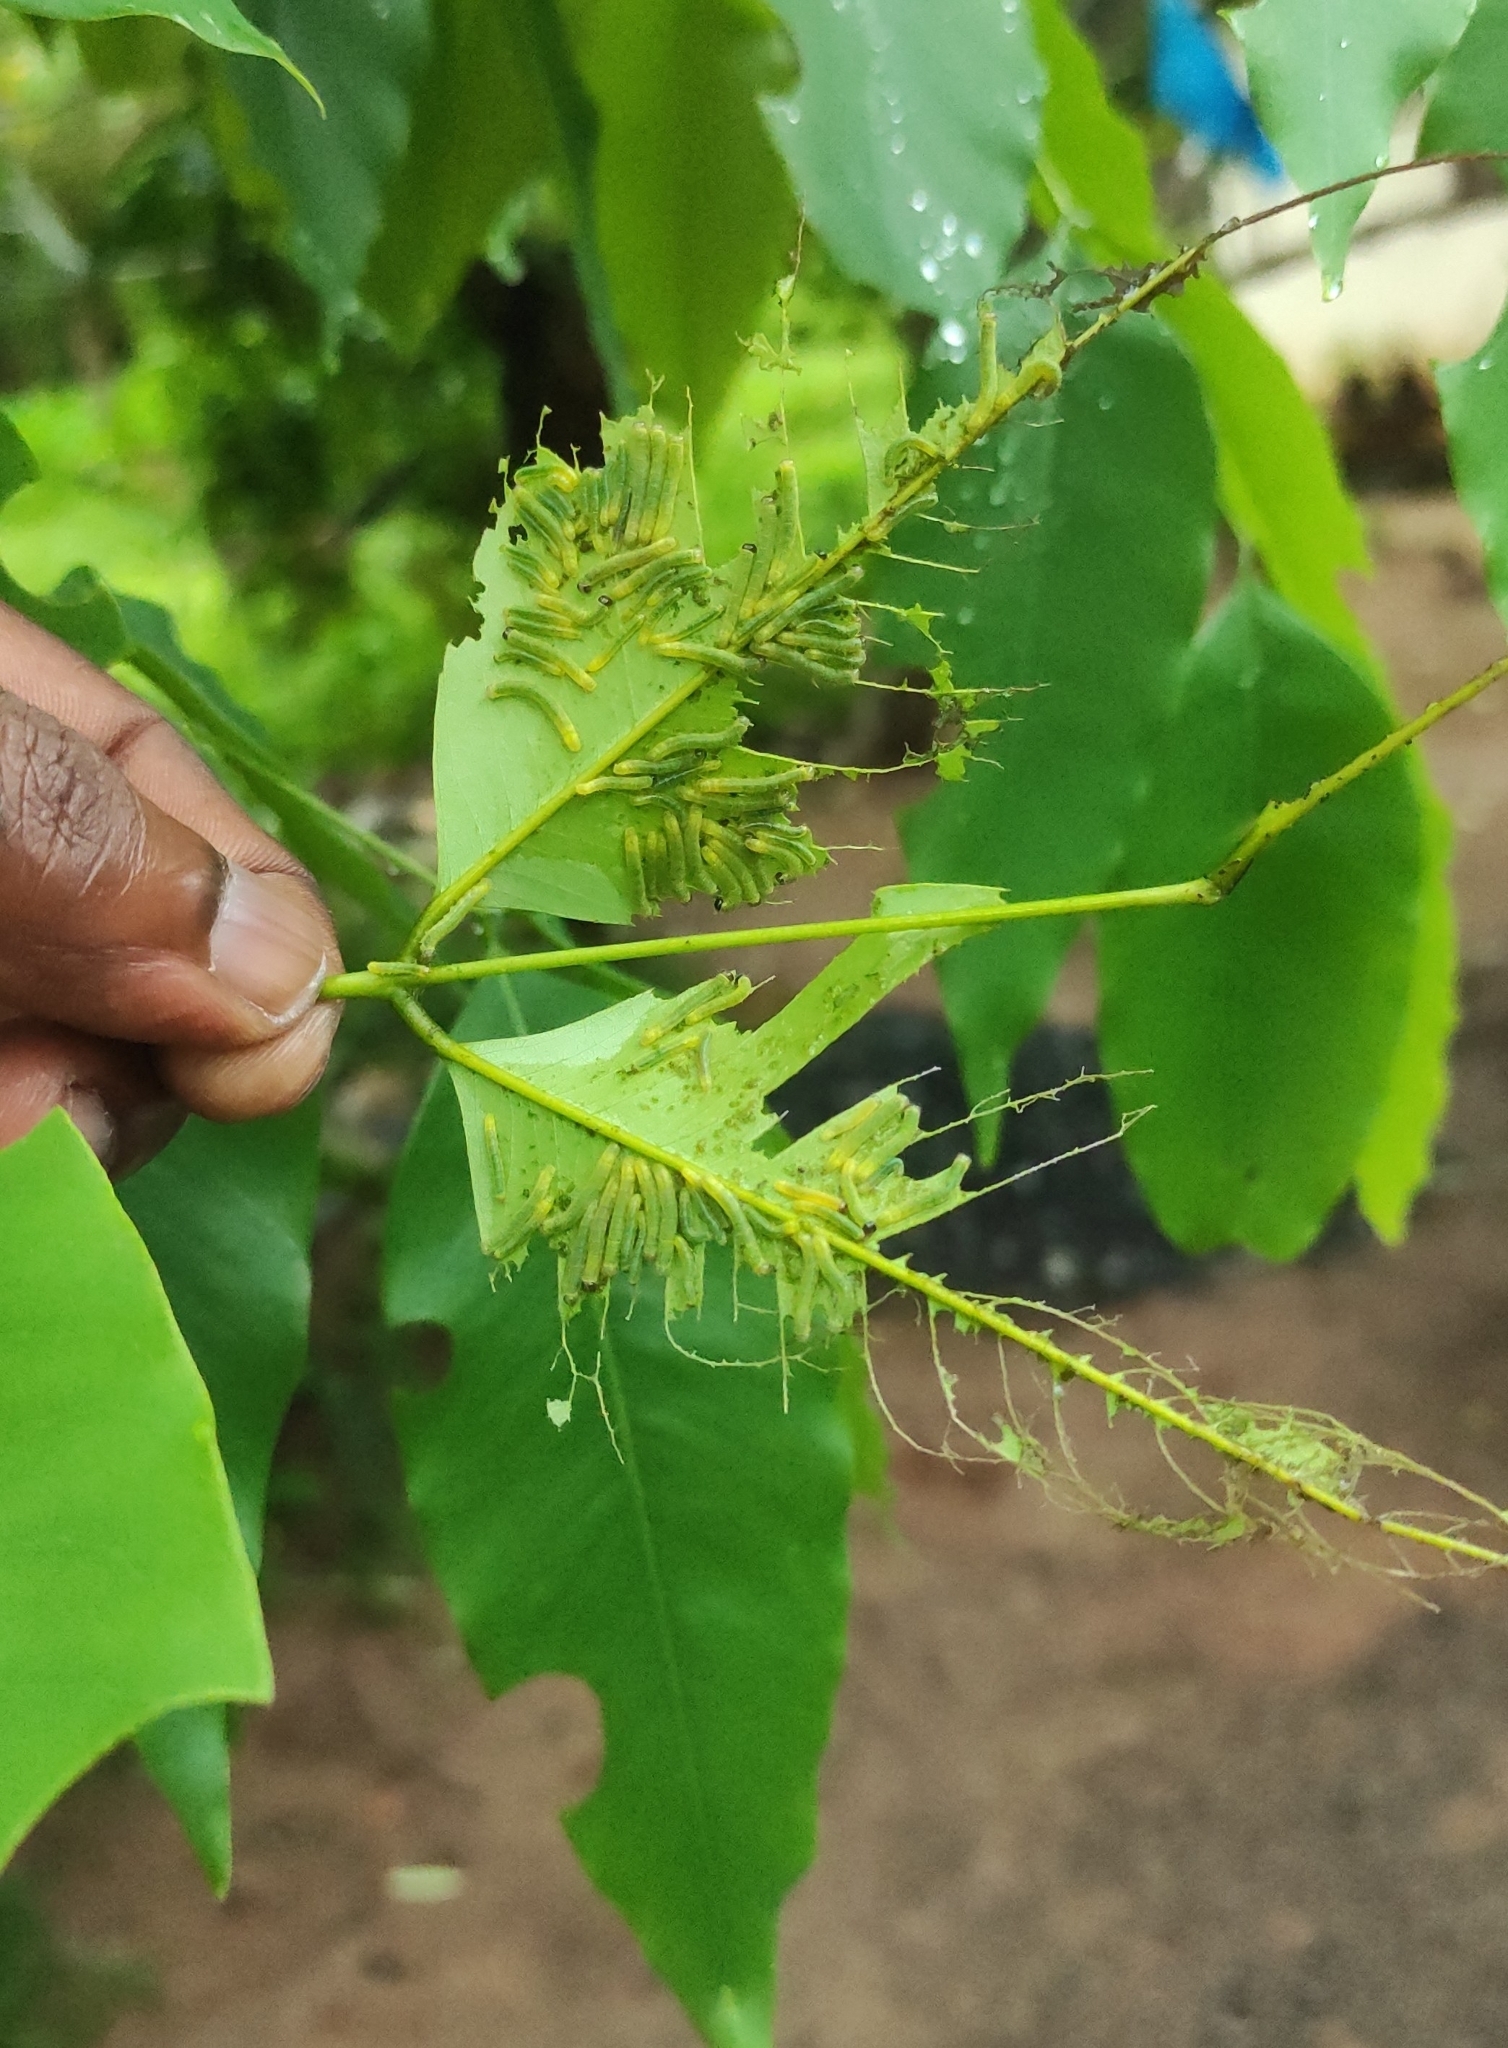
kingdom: Animalia
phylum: Arthropoda
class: Insecta
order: Lepidoptera
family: Pieridae
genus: Eurema
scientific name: Eurema blanda
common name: Three-spot grass yellow
